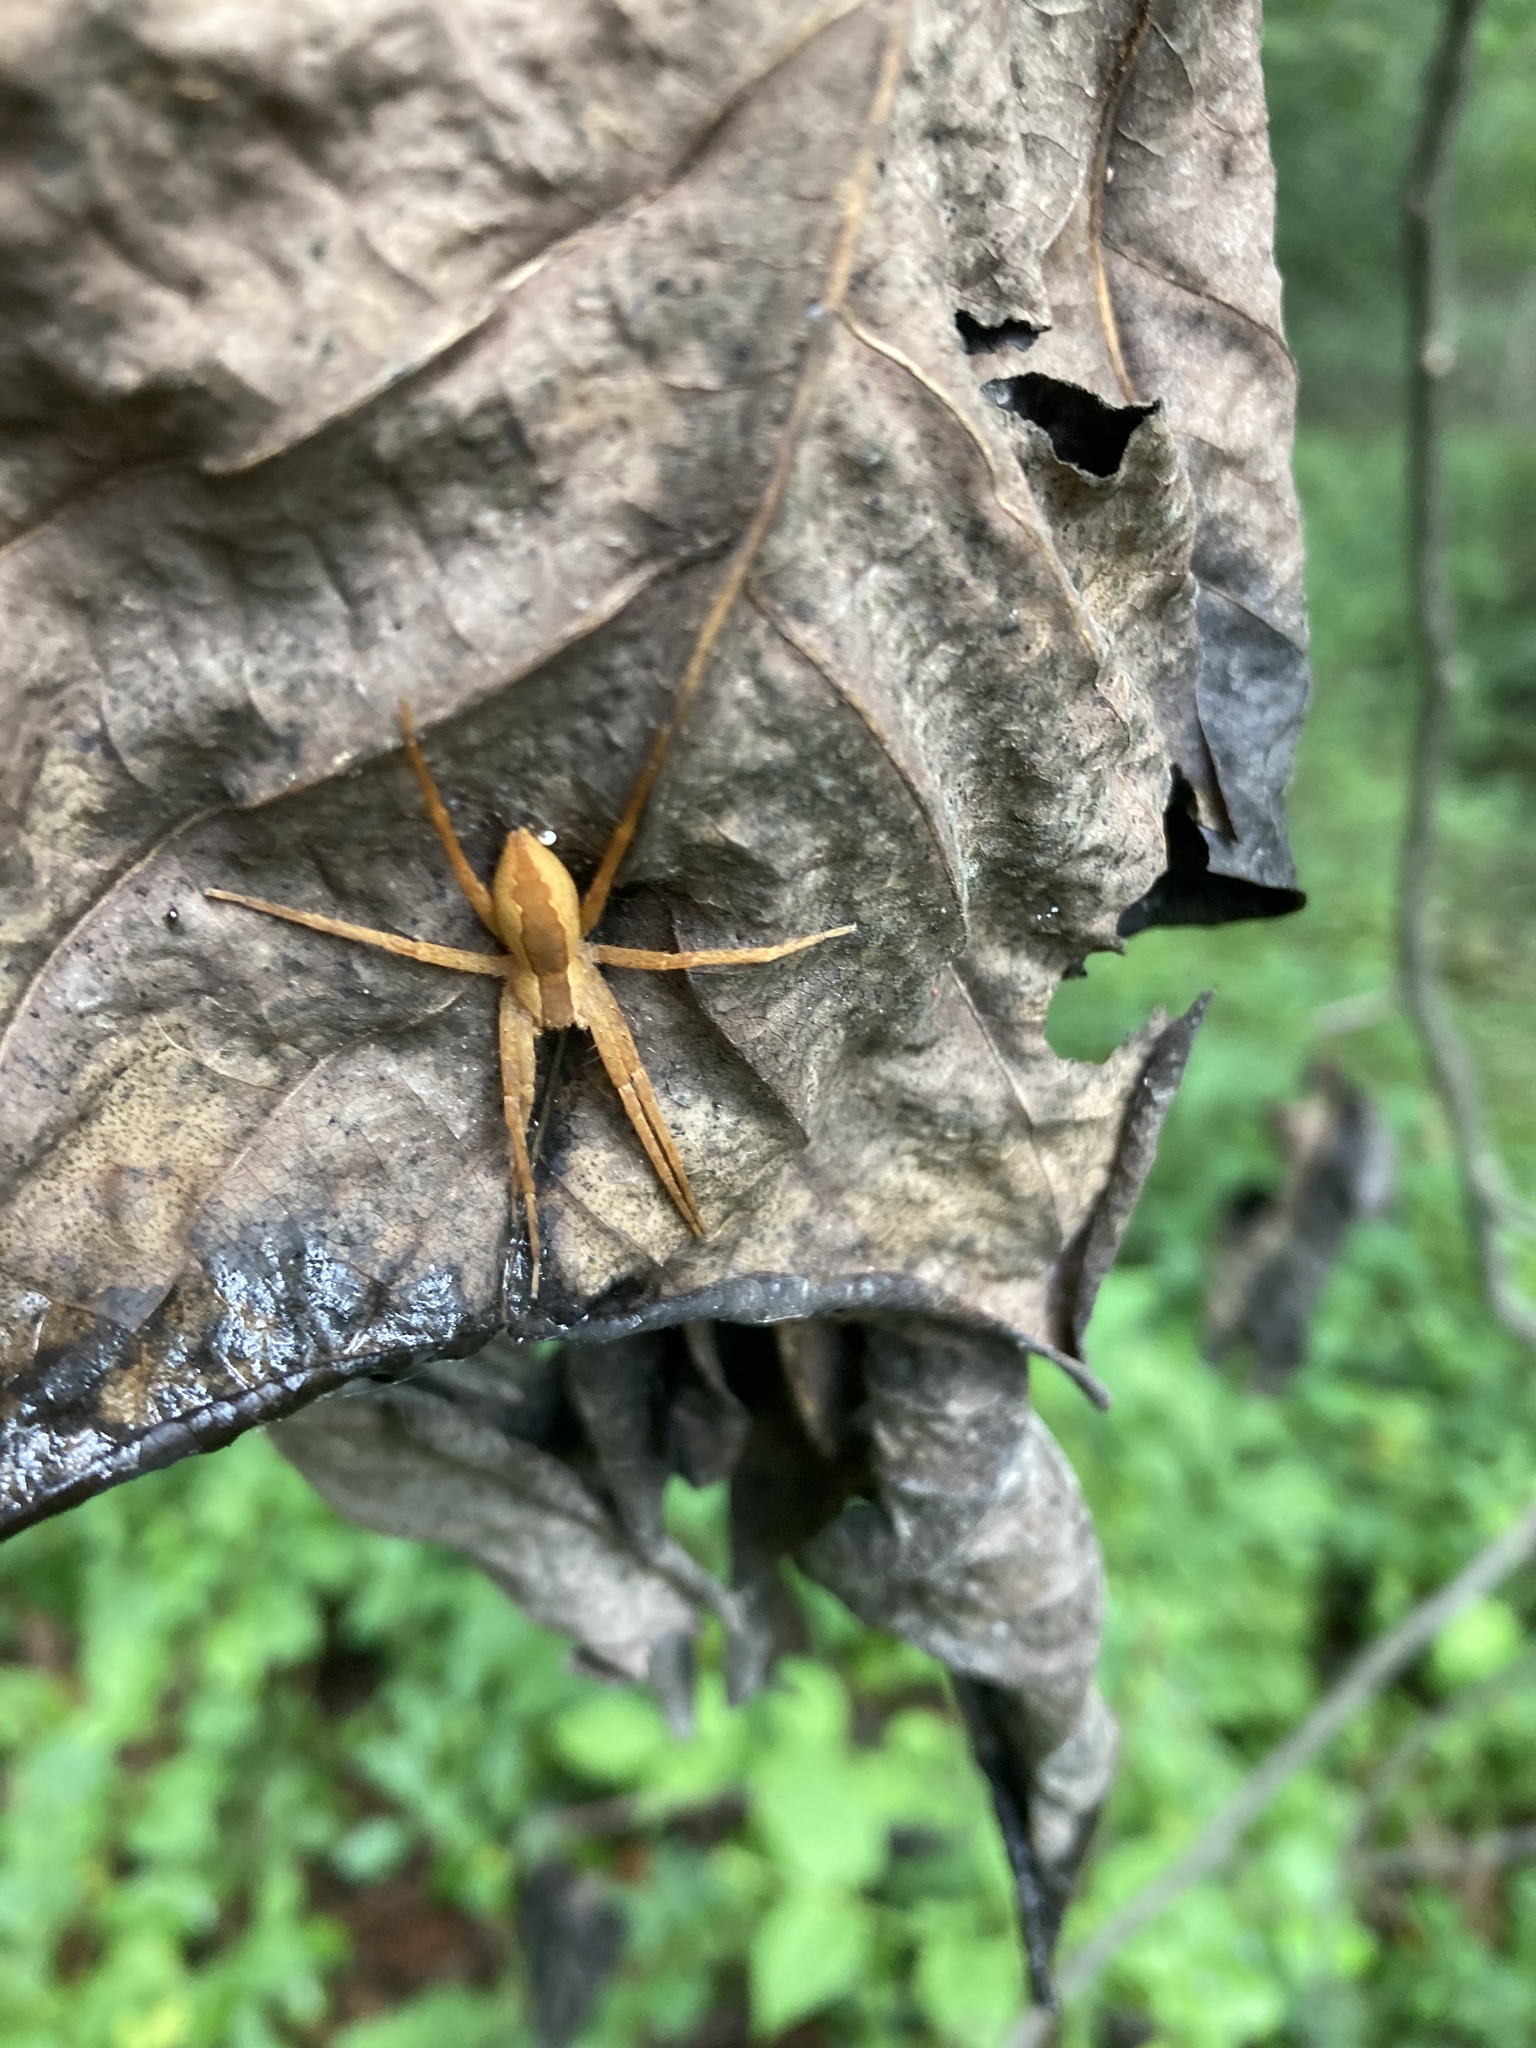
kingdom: Animalia
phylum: Arthropoda
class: Arachnida
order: Araneae
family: Pisauridae
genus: Pisaurina
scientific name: Pisaurina mira
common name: American nursery web spider
